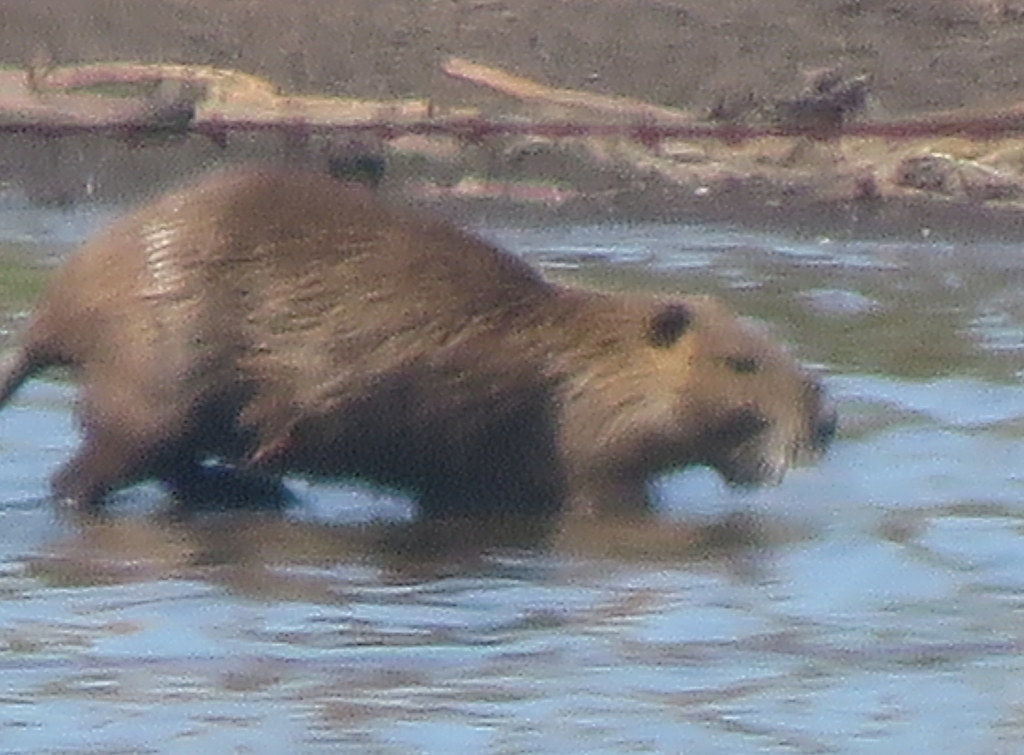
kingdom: Animalia
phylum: Chordata
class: Mammalia
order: Rodentia
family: Myocastoridae
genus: Myocastor
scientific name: Myocastor coypus
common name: Coypu
